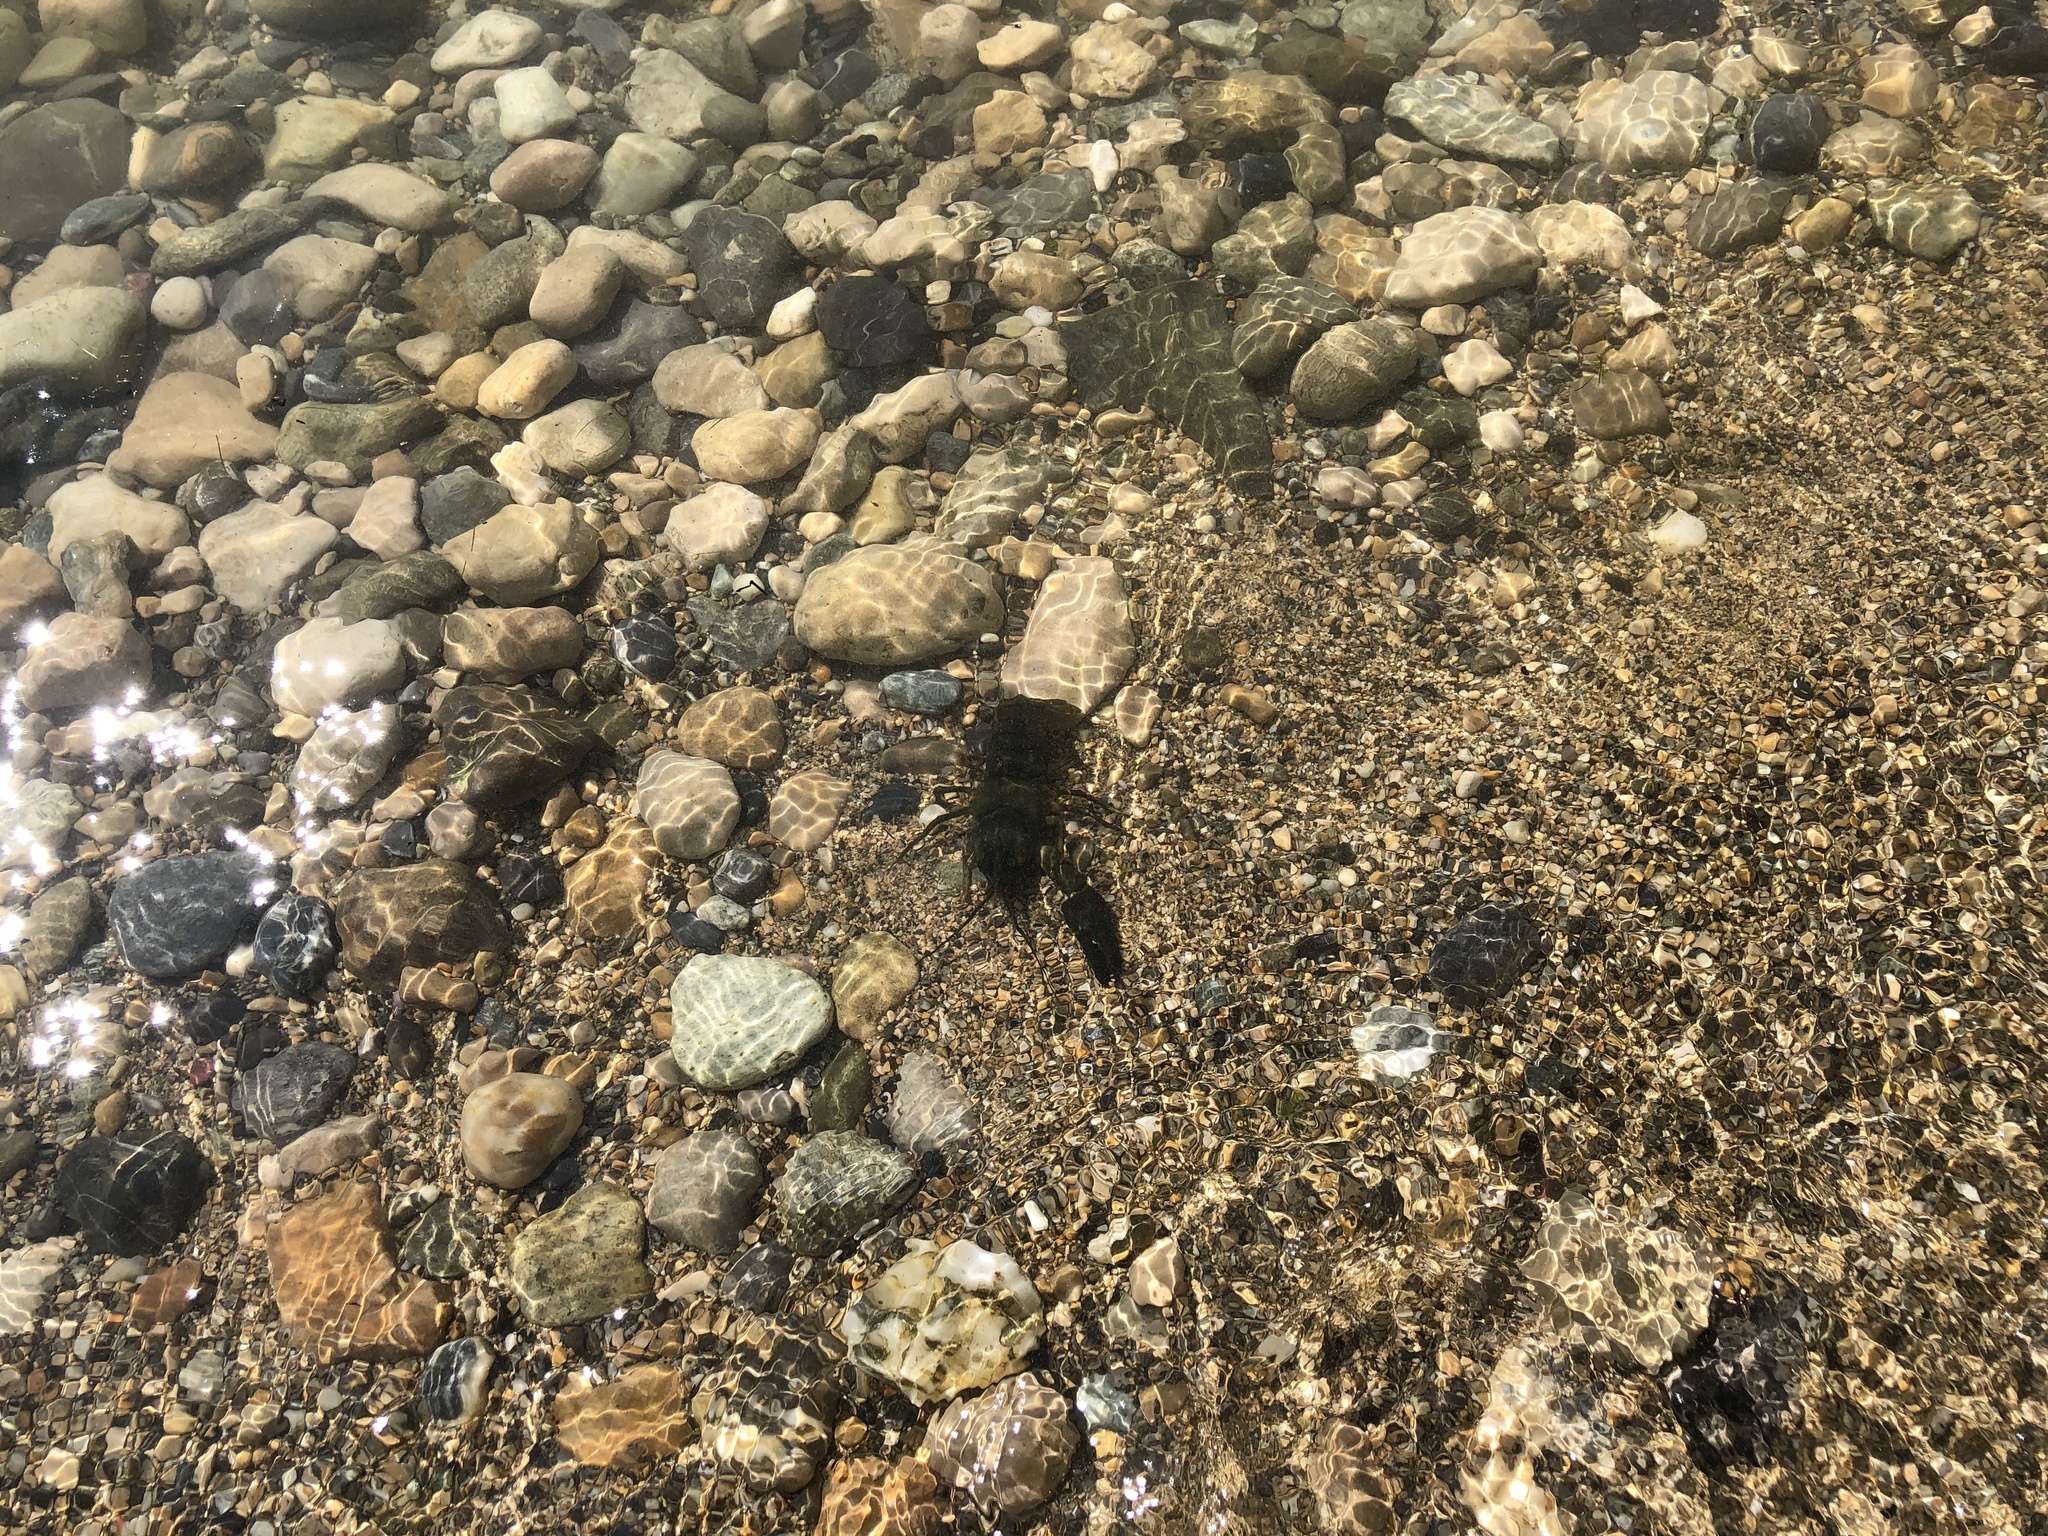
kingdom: Animalia
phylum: Arthropoda
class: Malacostraca
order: Decapoda
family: Astacidae
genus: Pacifastacus
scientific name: Pacifastacus leniusculus
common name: Signal crayfish
